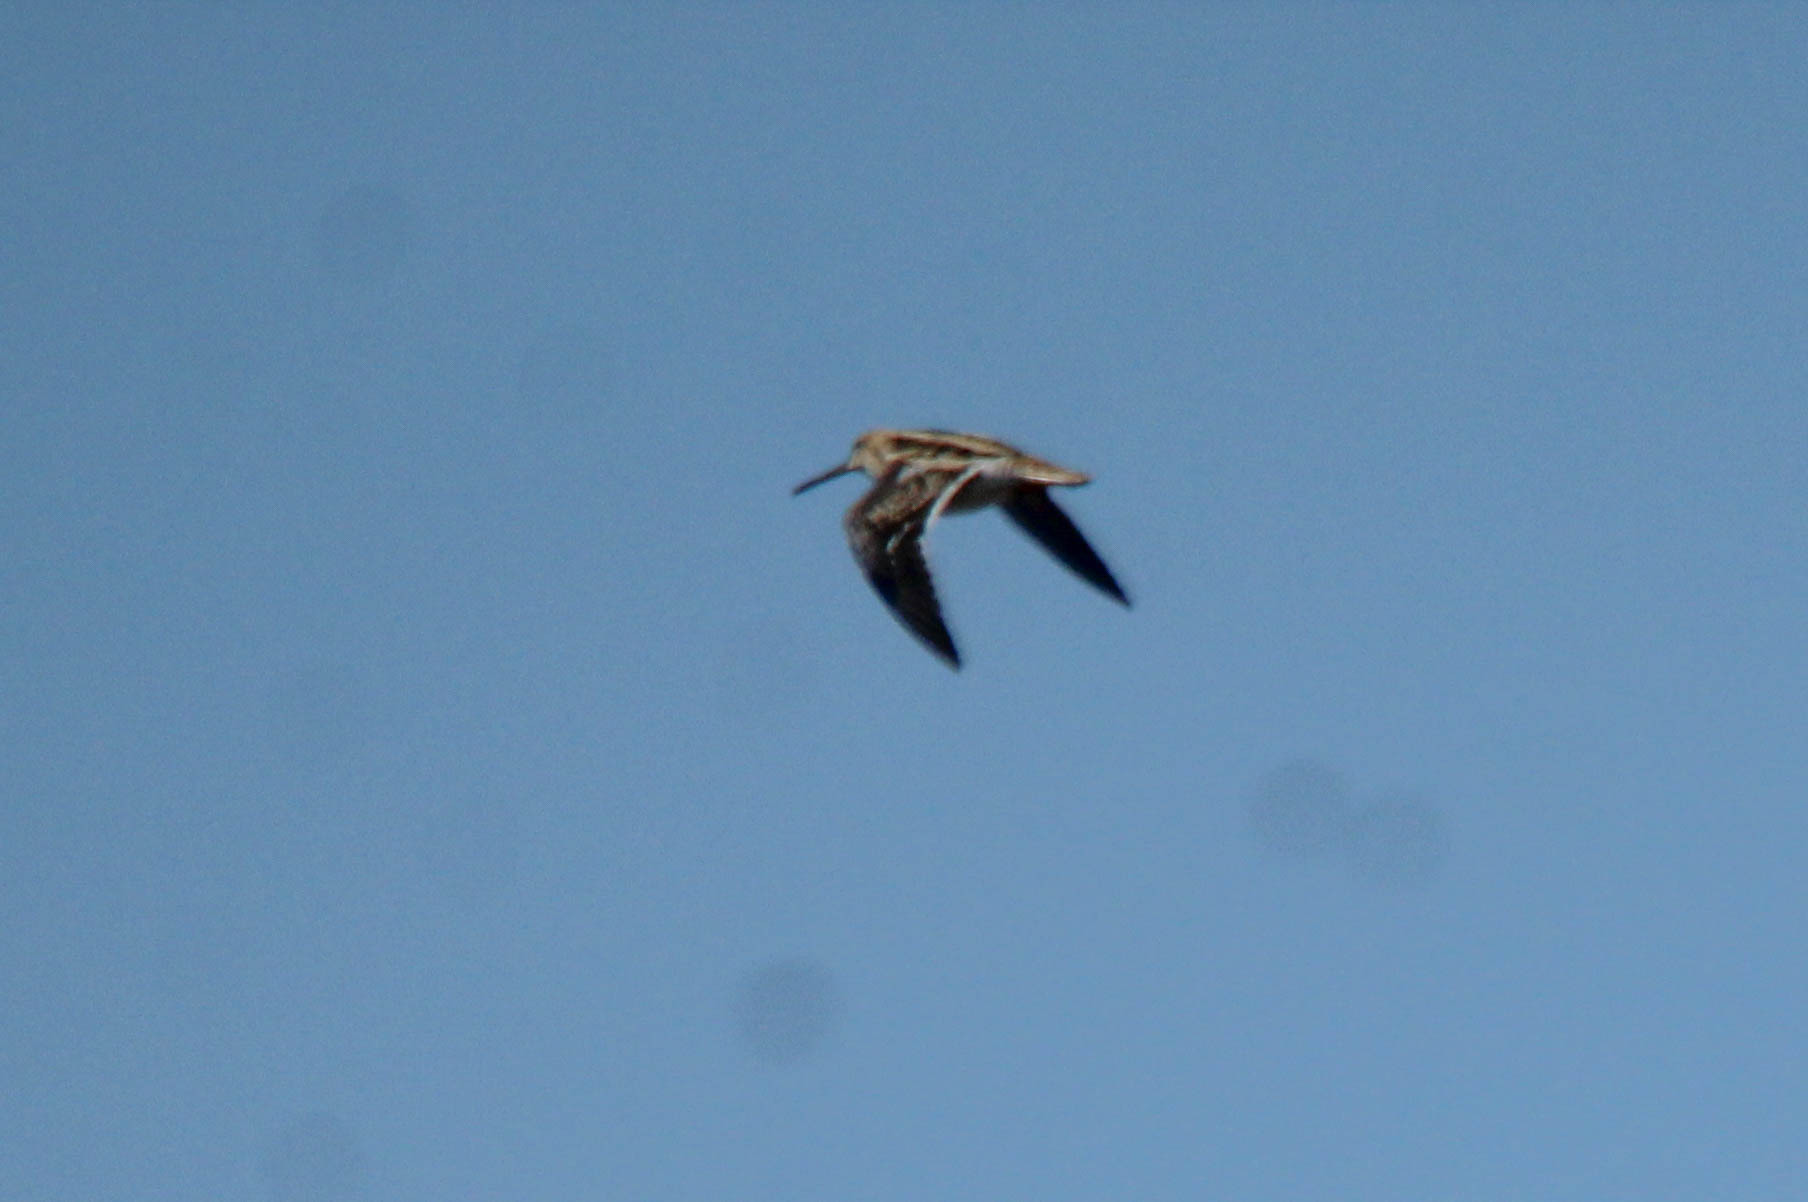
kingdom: Animalia
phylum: Chordata
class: Aves
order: Charadriiformes
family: Scolopacidae
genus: Gallinago
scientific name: Gallinago gallinago
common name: Common snipe
